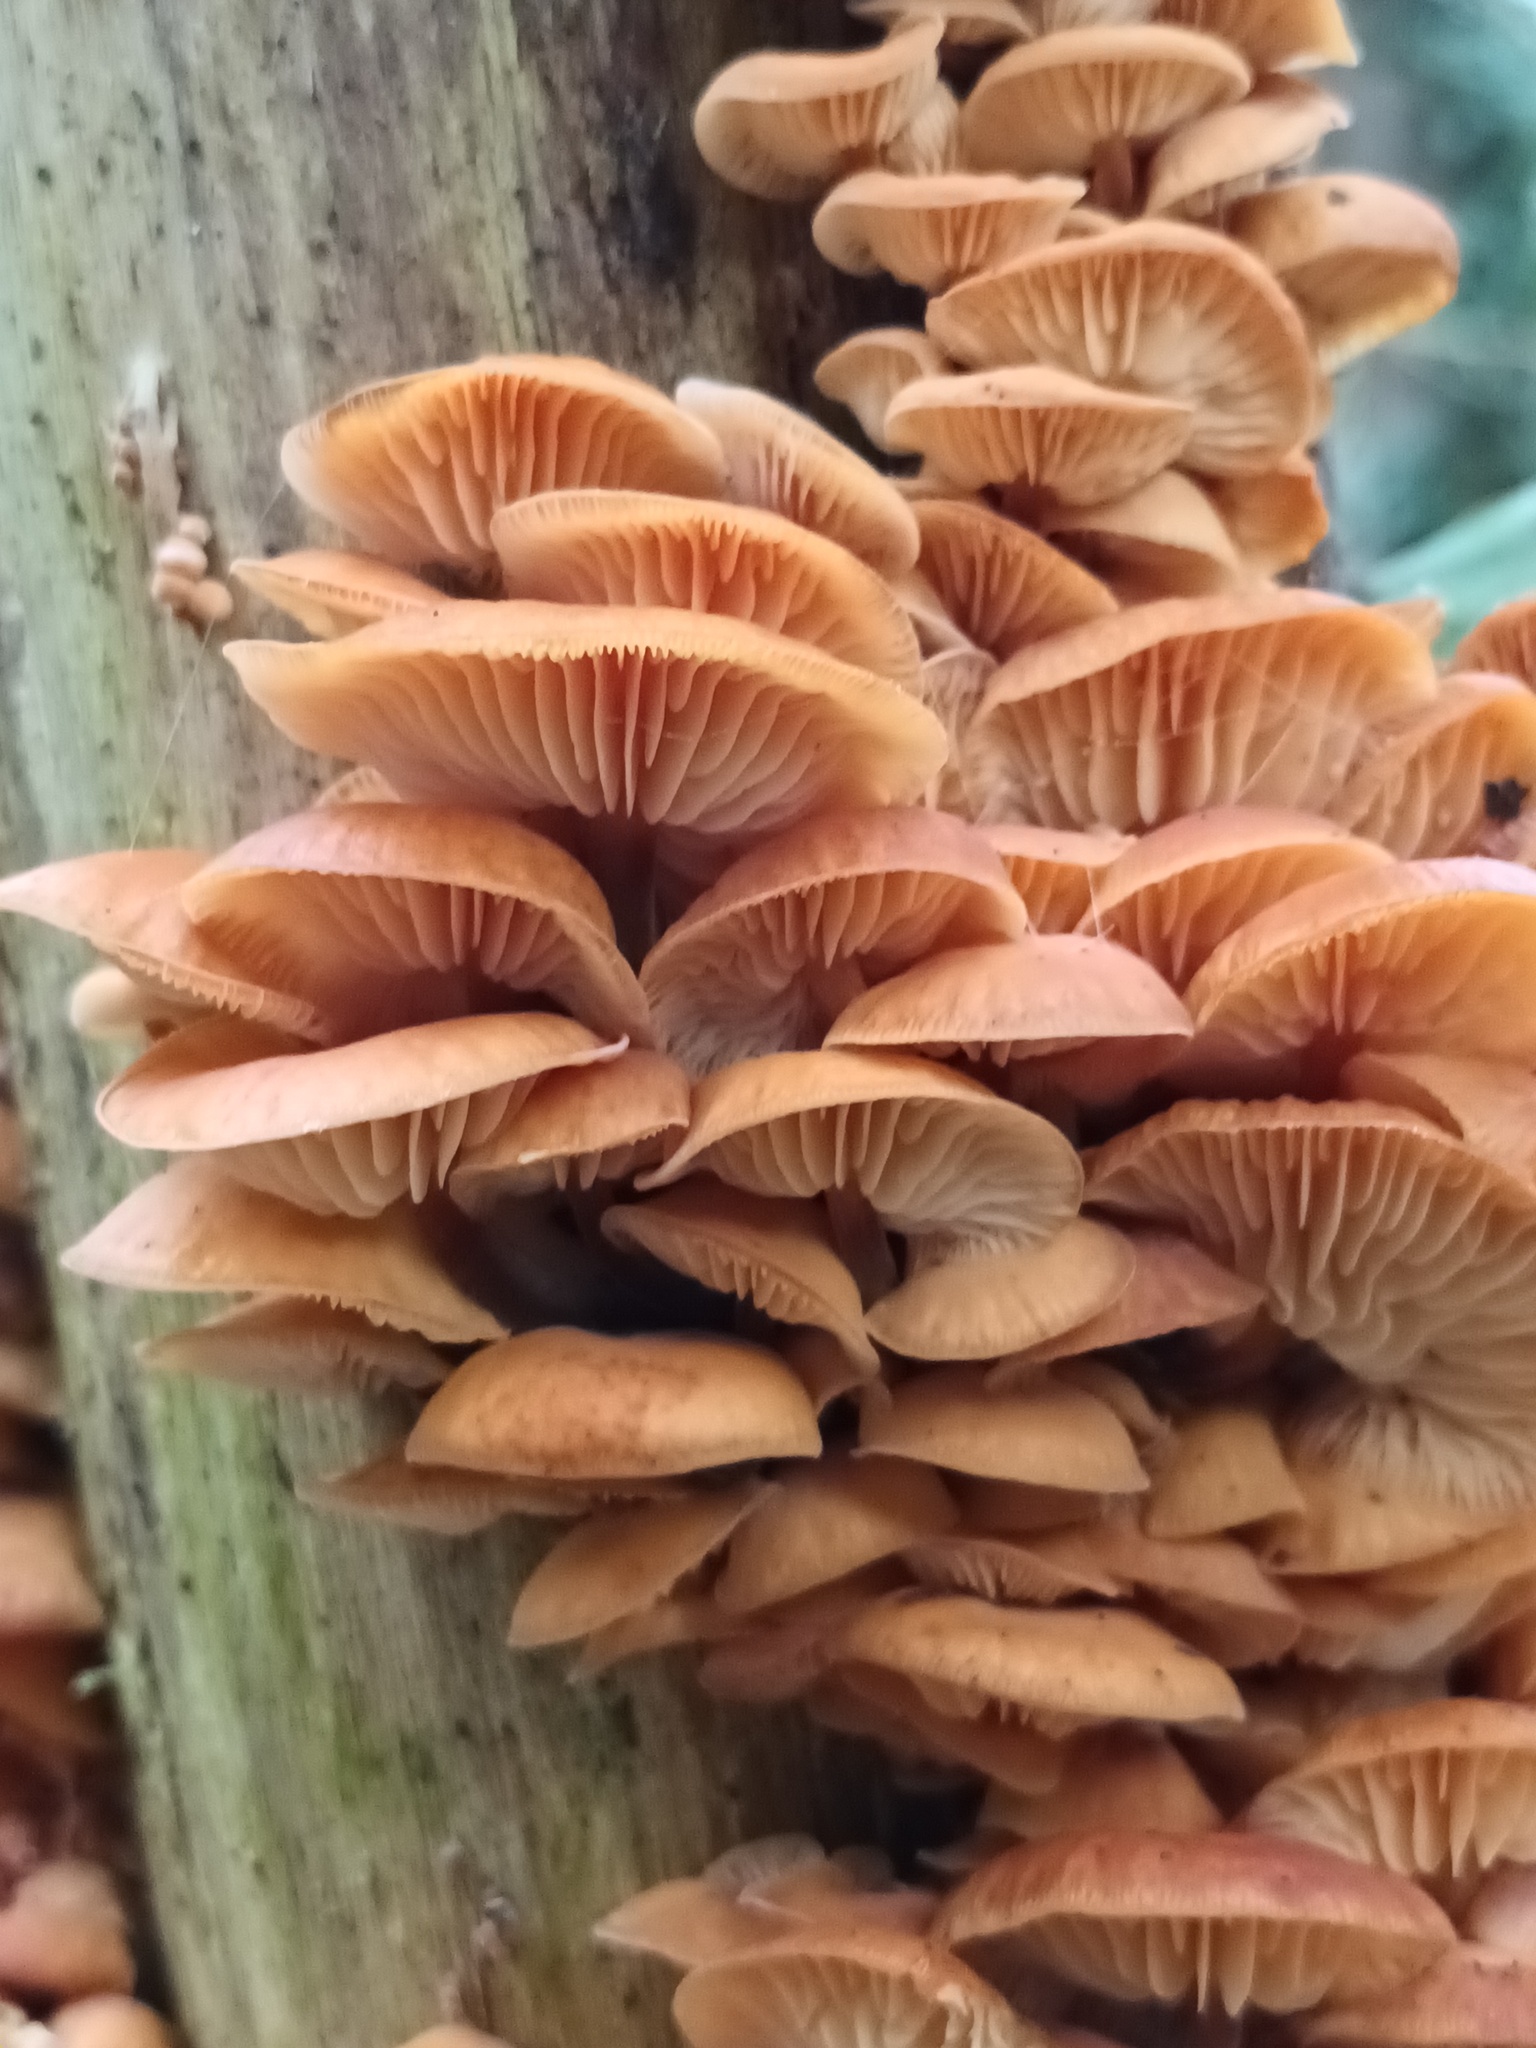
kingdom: Fungi
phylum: Basidiomycota
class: Agaricomycetes
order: Agaricales
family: Physalacriaceae
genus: Flammulina
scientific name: Flammulina
